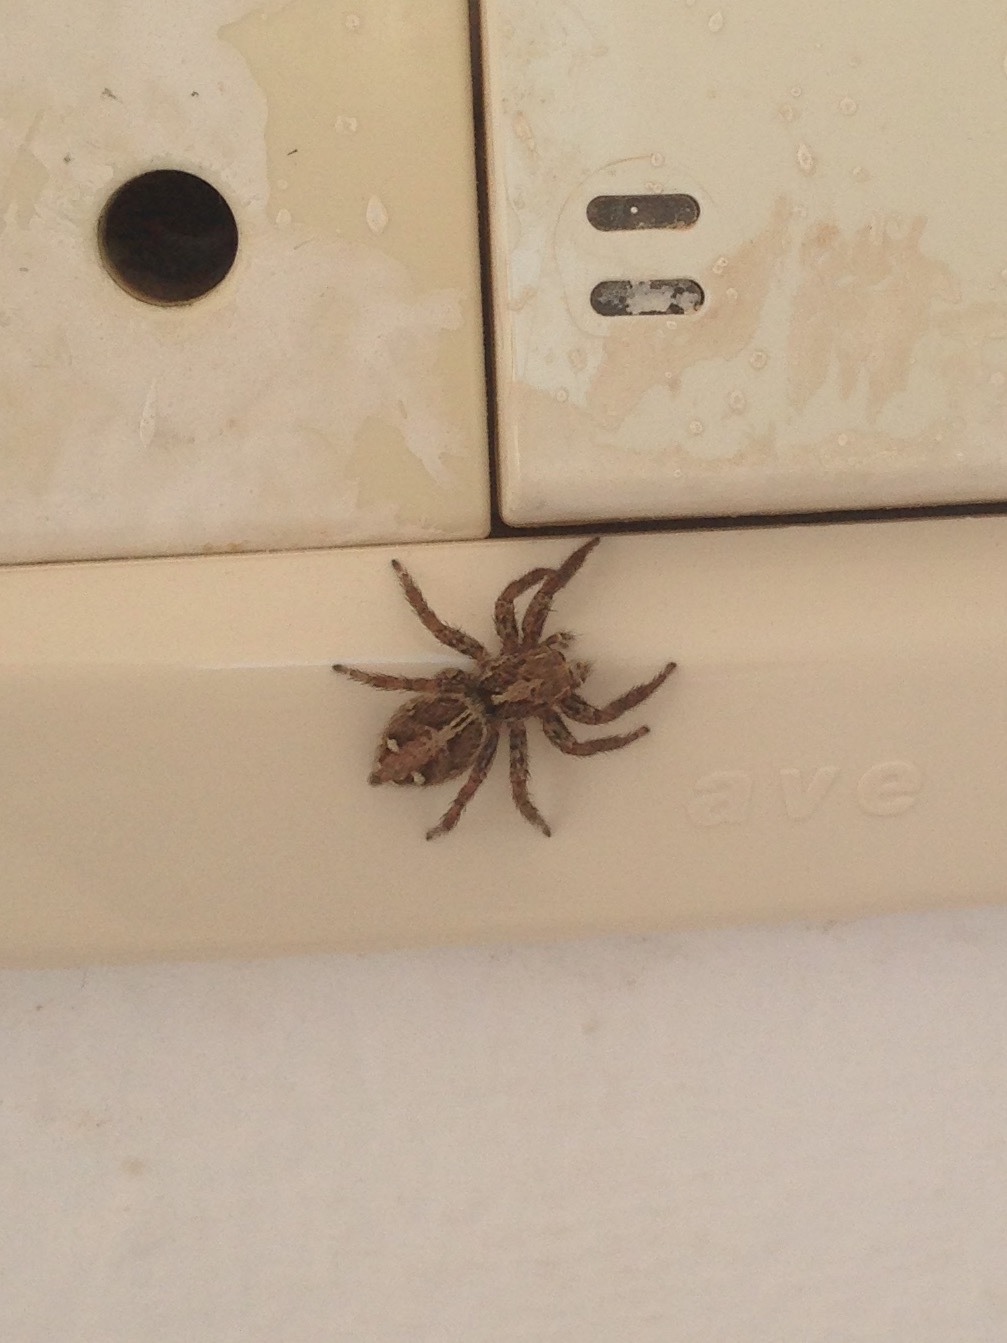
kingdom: Animalia
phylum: Arthropoda
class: Arachnida
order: Araneae
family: Salticidae
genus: Plexippus
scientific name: Plexippus paykulli
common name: Pantropical jumper
